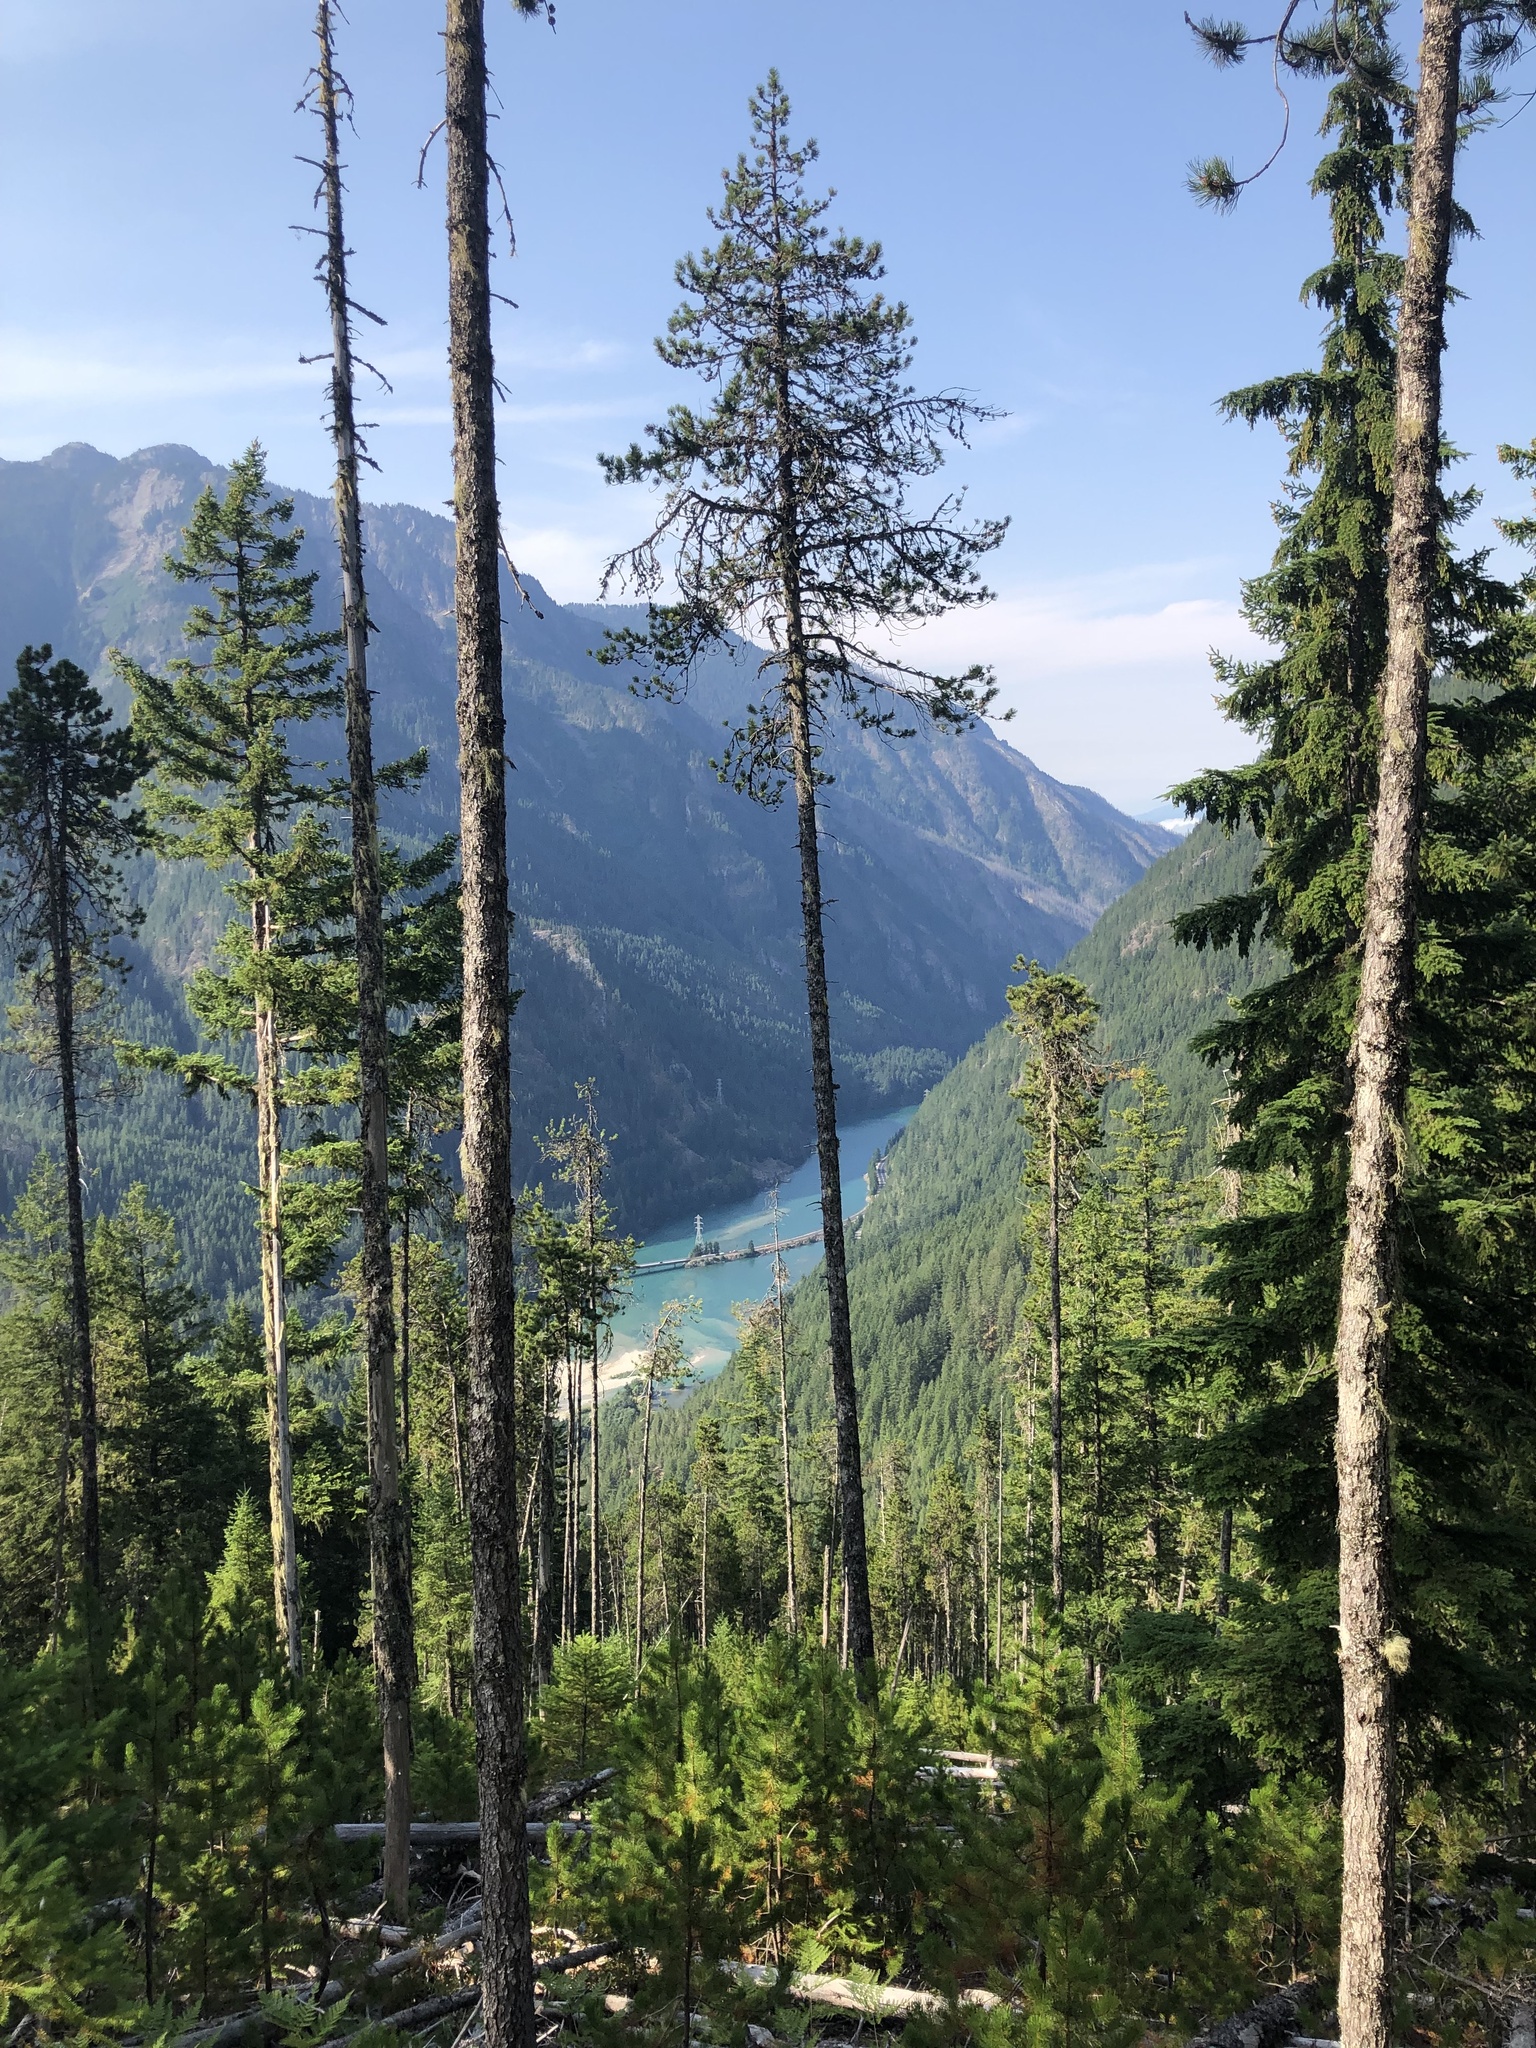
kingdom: Plantae
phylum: Tracheophyta
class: Pinopsida
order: Pinales
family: Pinaceae
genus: Pinus
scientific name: Pinus contorta
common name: Lodgepole pine
